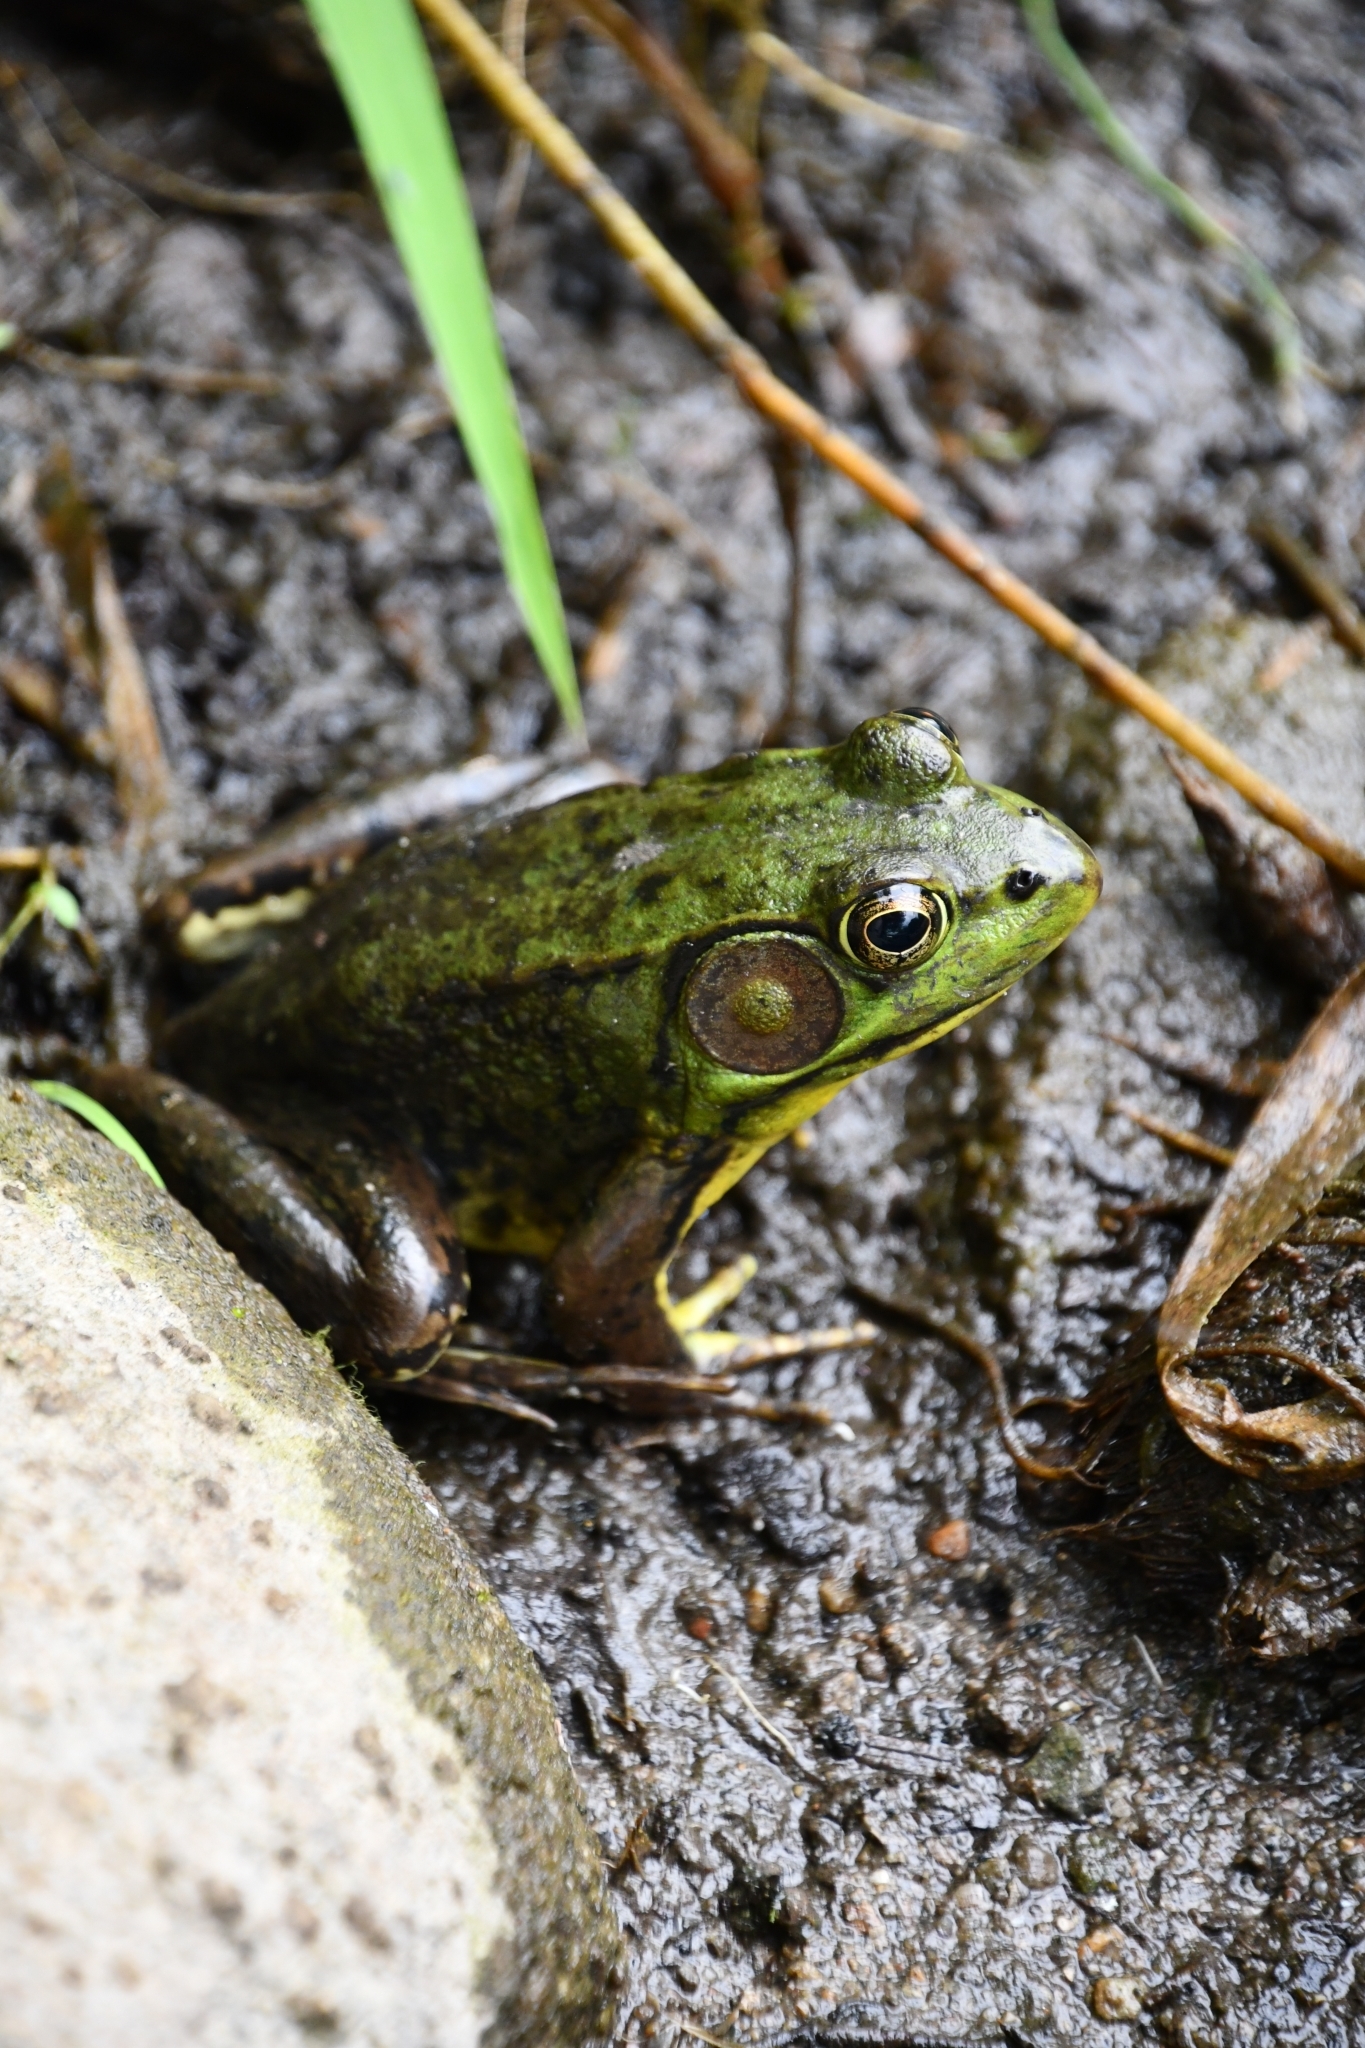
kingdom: Animalia
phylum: Chordata
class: Amphibia
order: Anura
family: Ranidae
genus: Lithobates
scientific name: Lithobates clamitans
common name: Green frog
